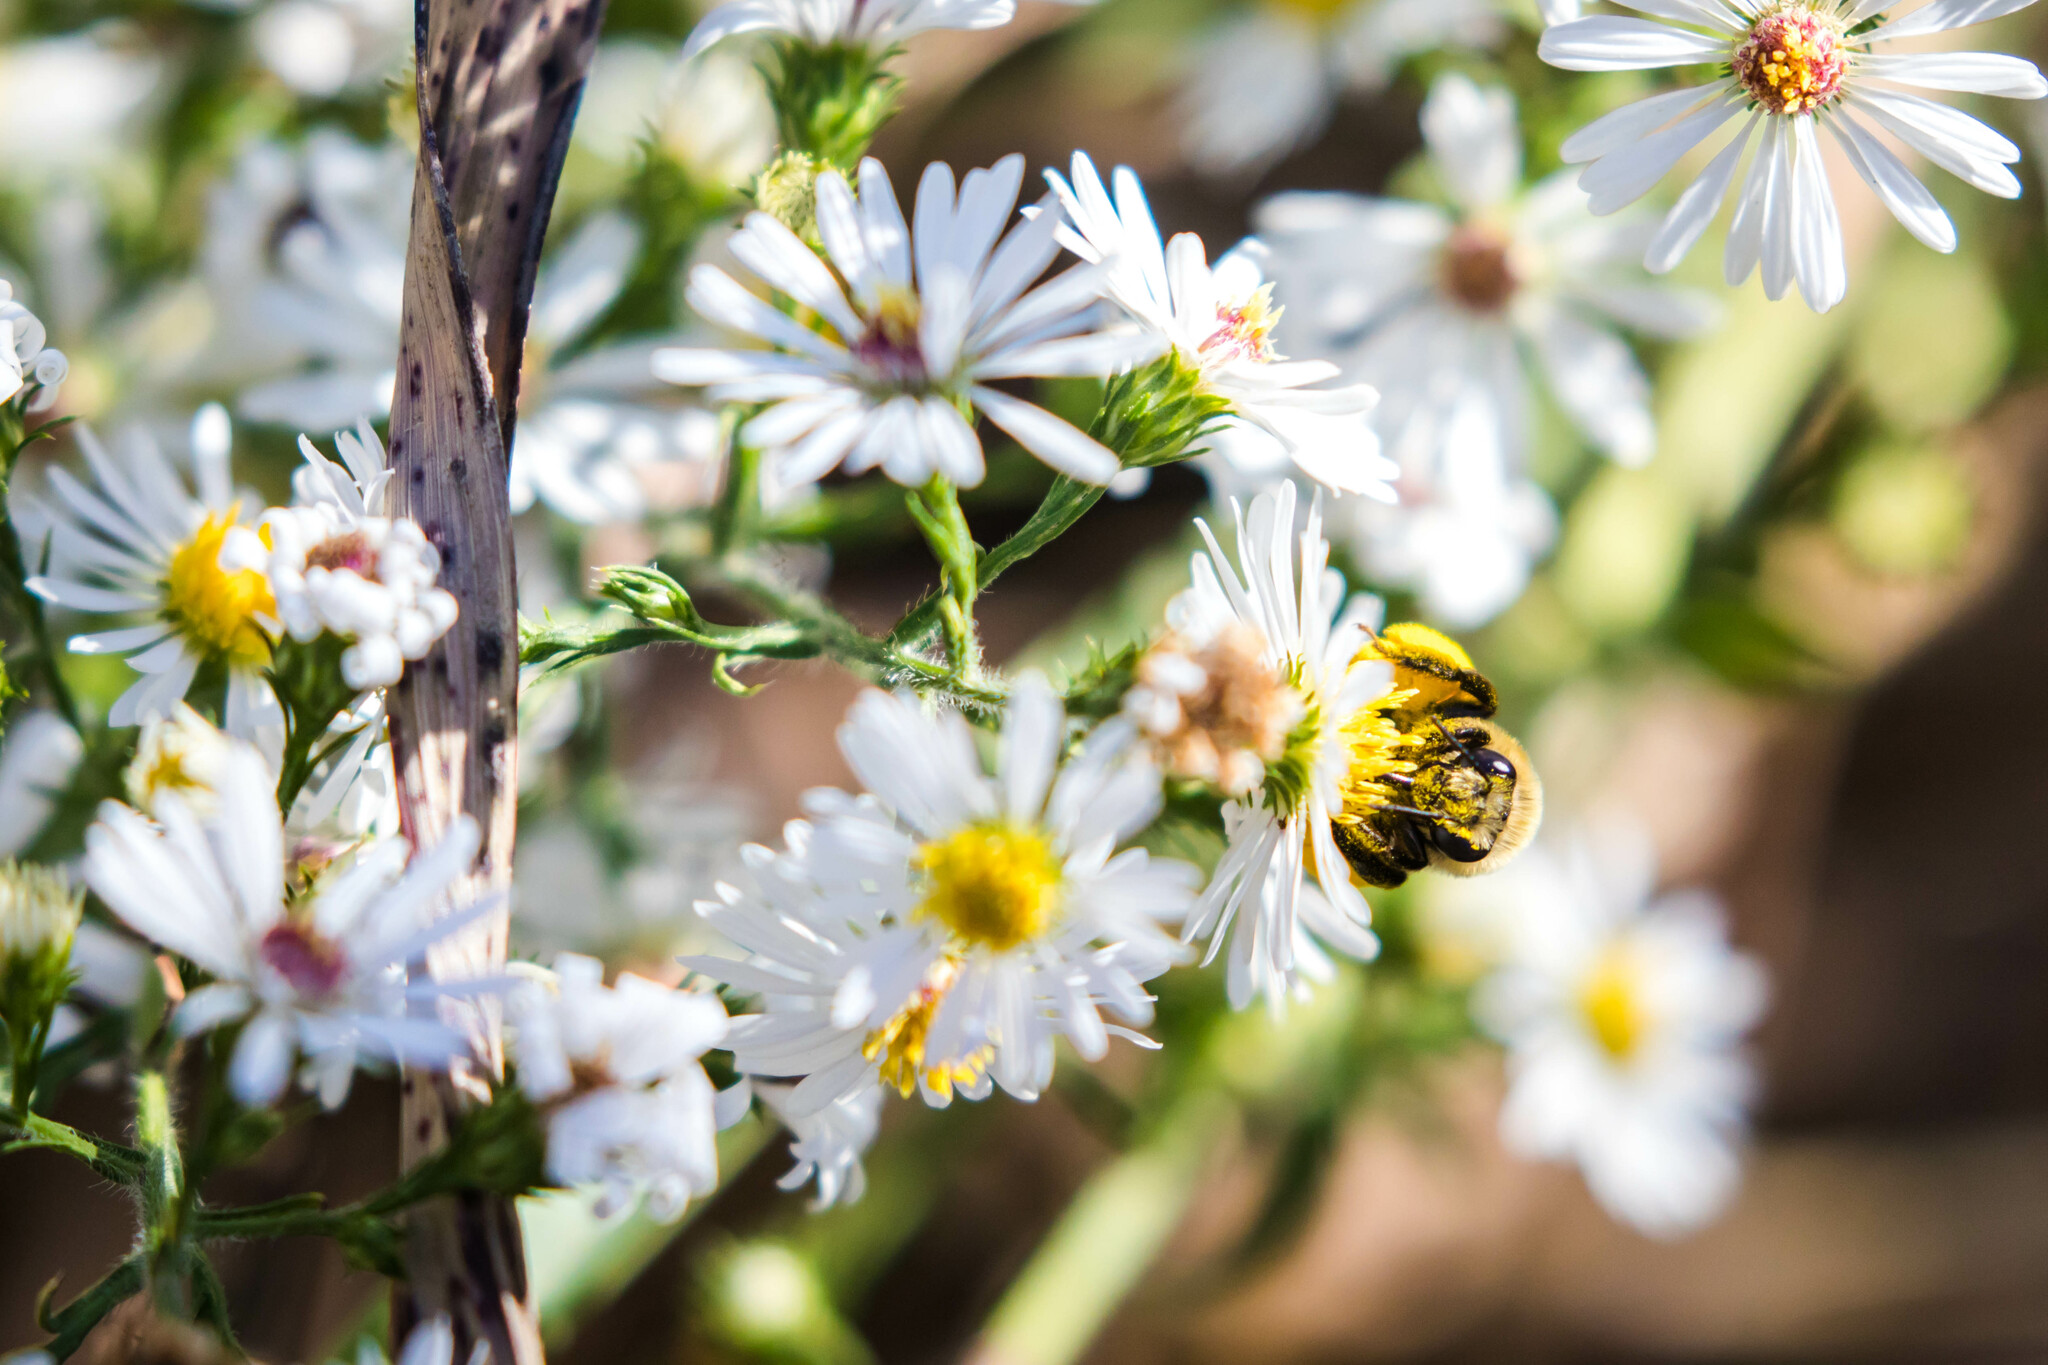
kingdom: Animalia
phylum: Arthropoda
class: Insecta
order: Hymenoptera
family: Apidae
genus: Melissodes
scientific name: Melissodes dentiventris
